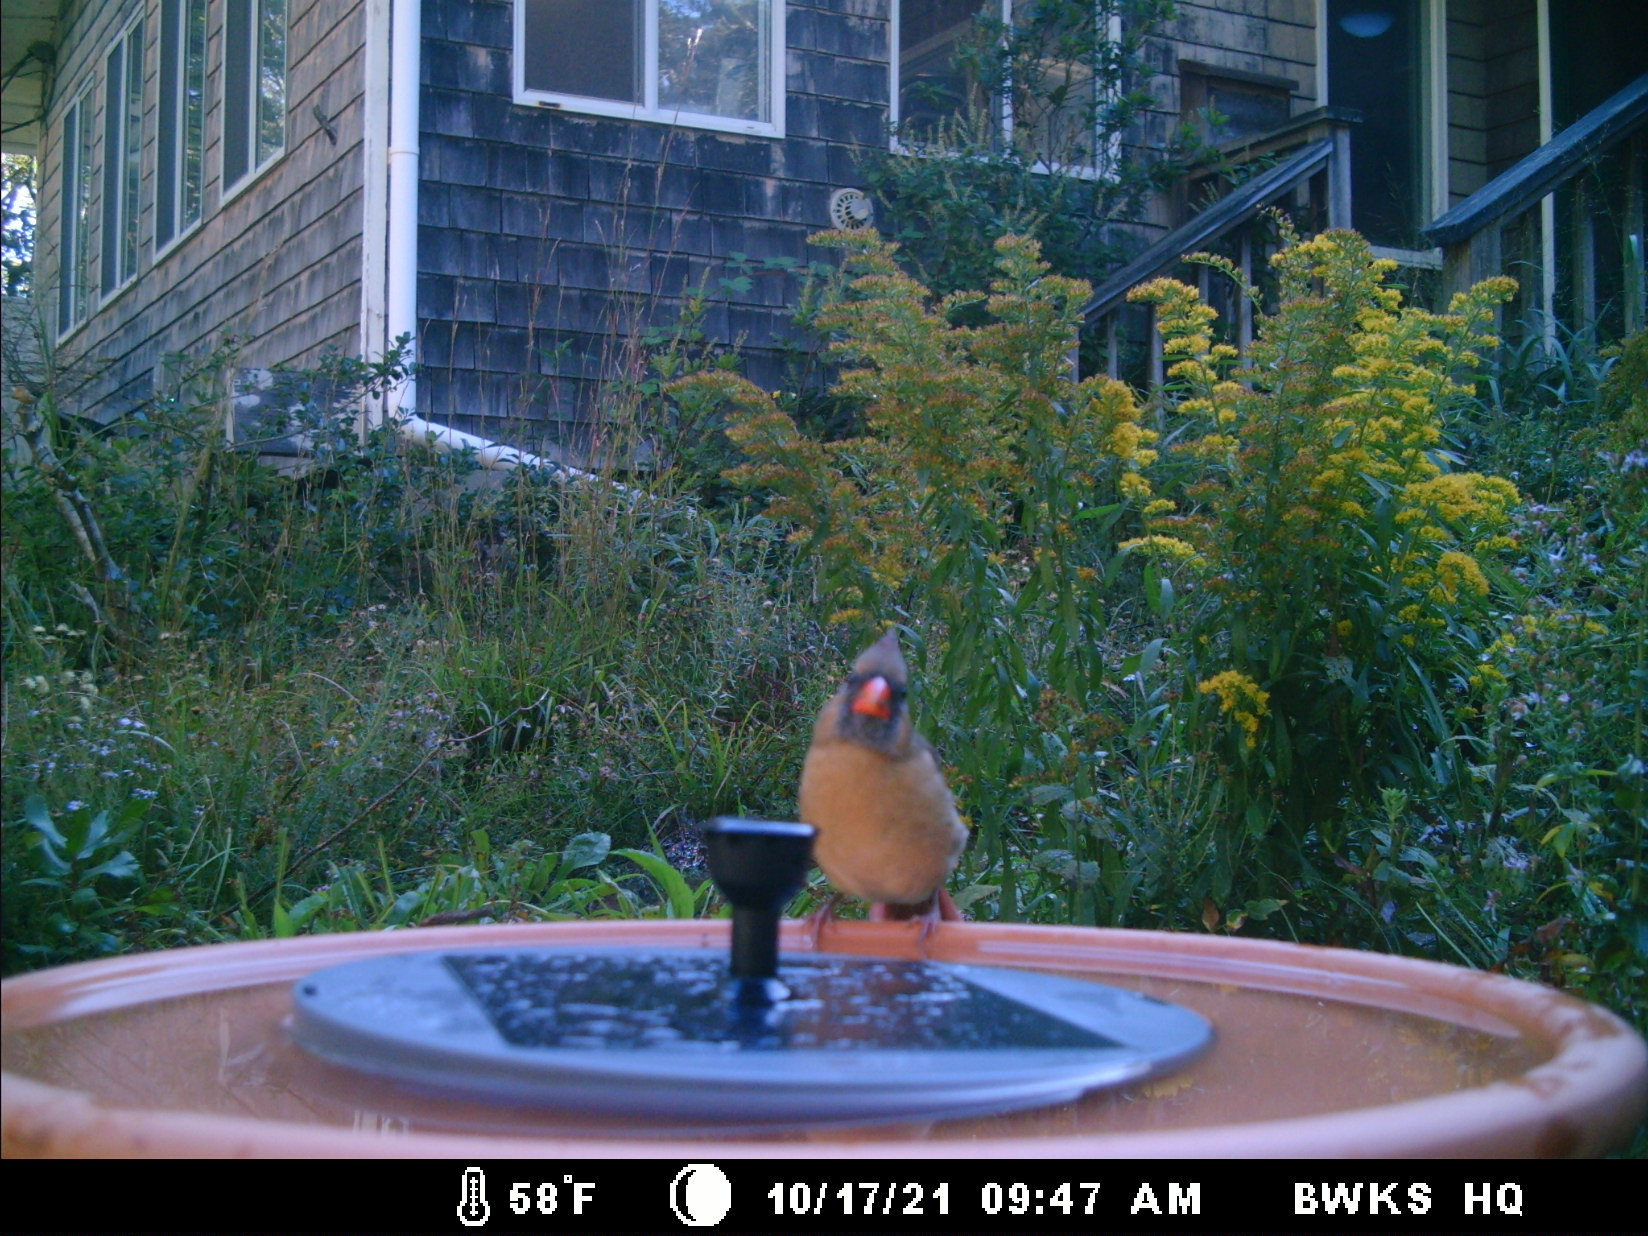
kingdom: Animalia
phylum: Chordata
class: Aves
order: Passeriformes
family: Cardinalidae
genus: Cardinalis
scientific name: Cardinalis cardinalis
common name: Northern cardinal
